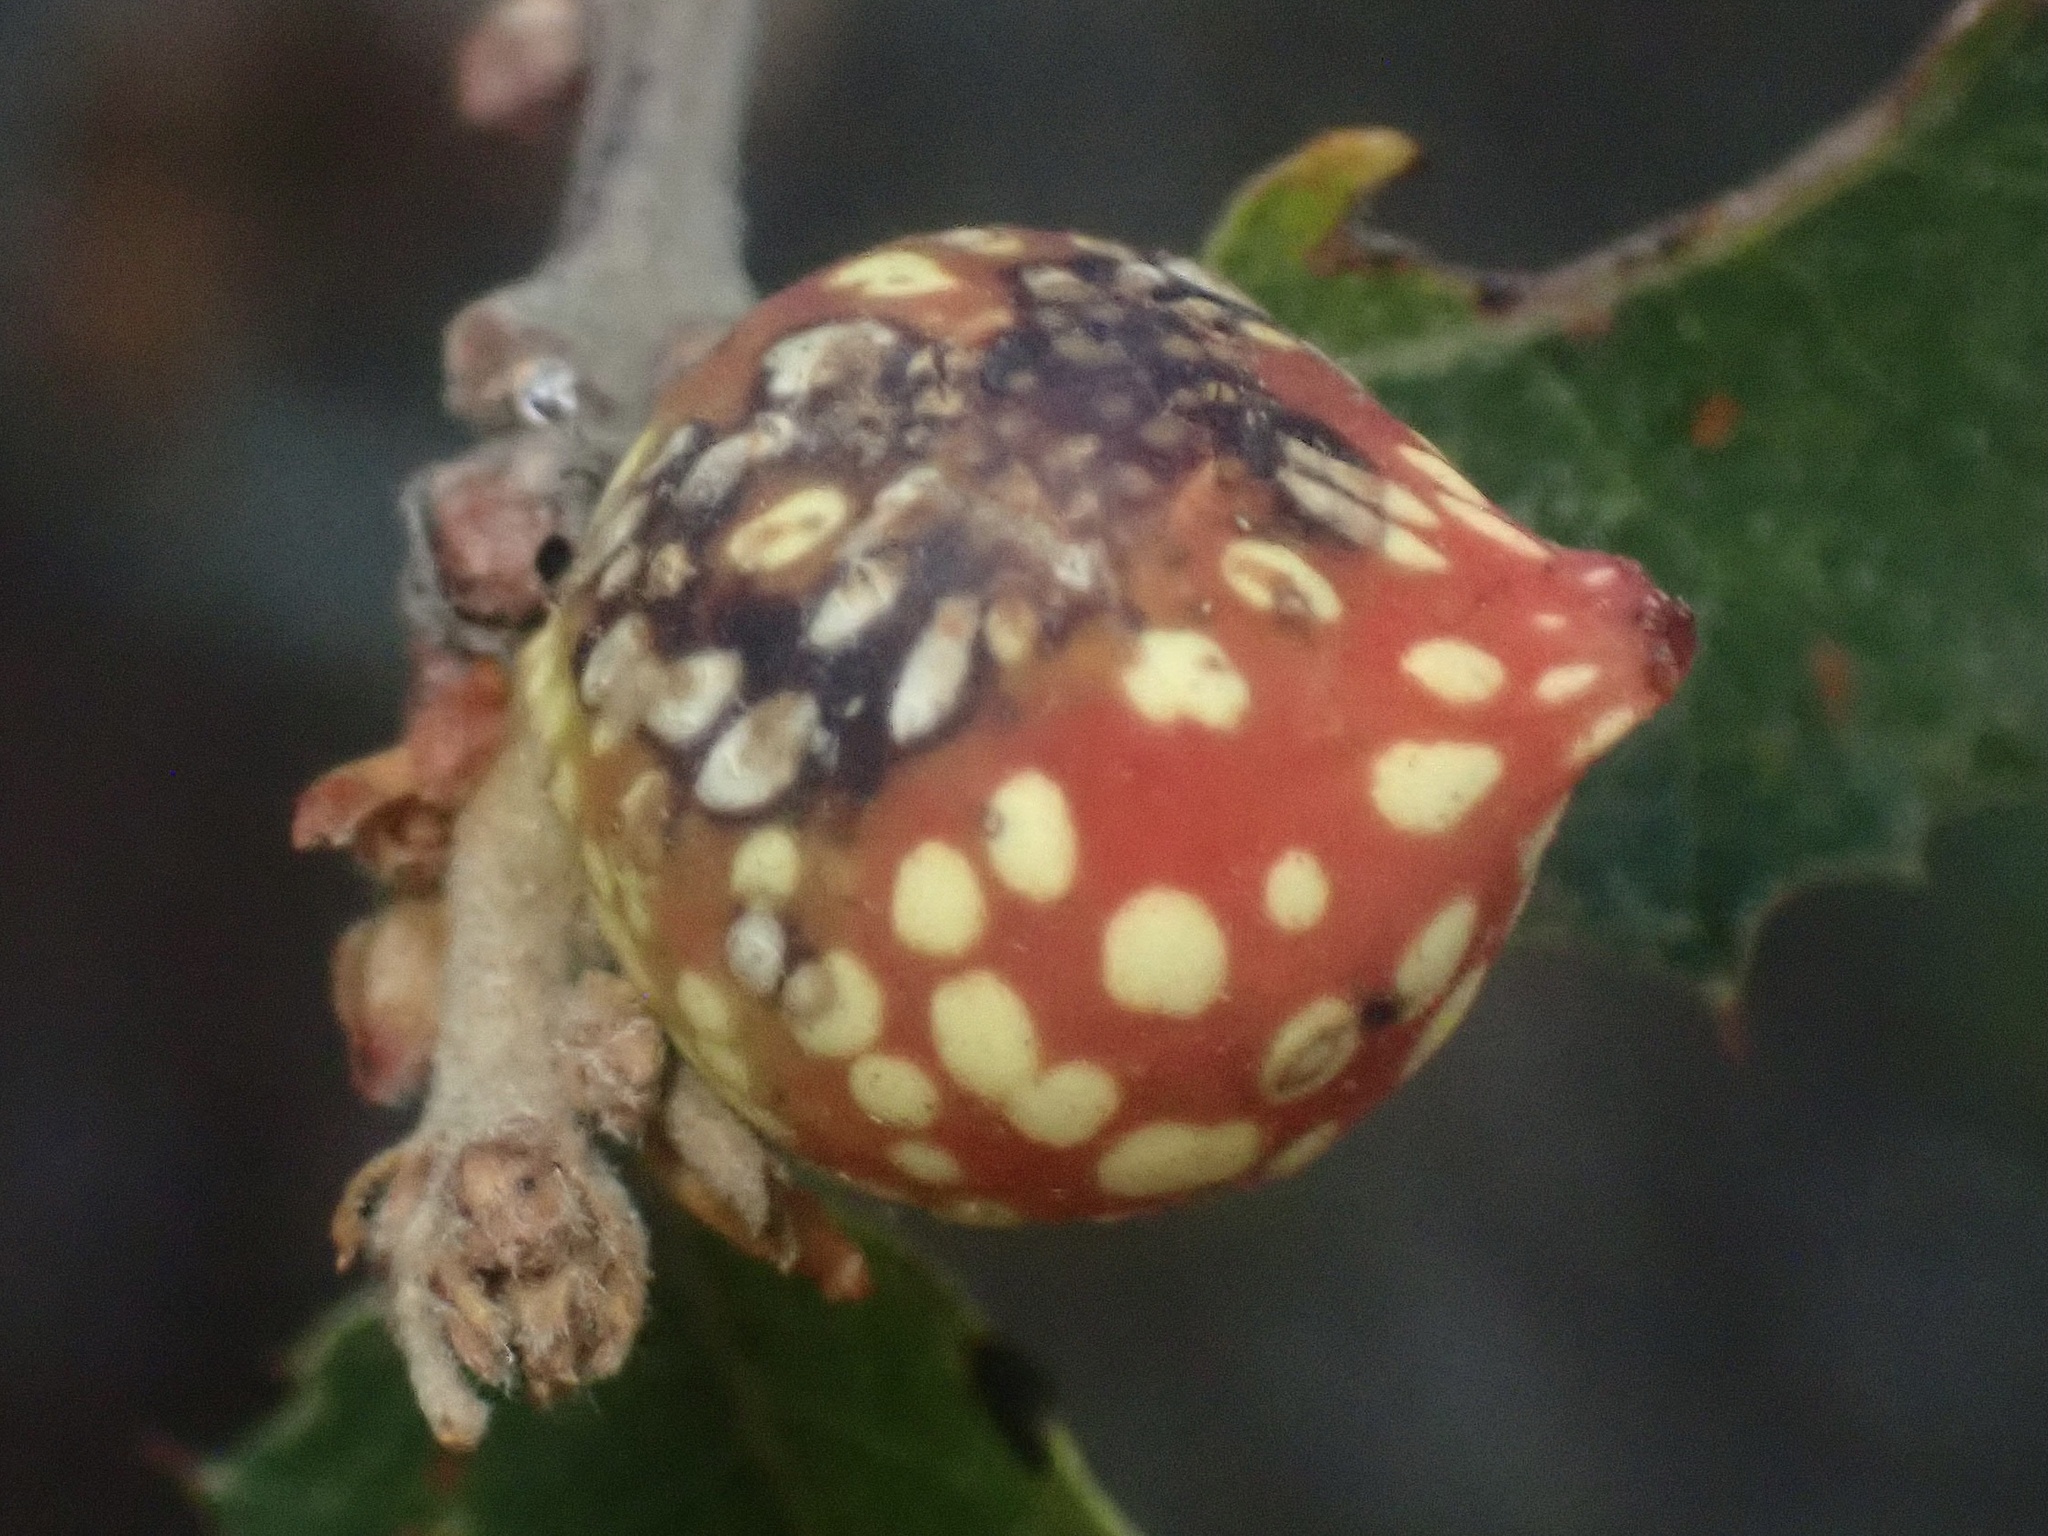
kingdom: Animalia
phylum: Arthropoda
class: Insecta
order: Hymenoptera
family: Cynipidae
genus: Burnettweldia
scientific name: Burnettweldia
